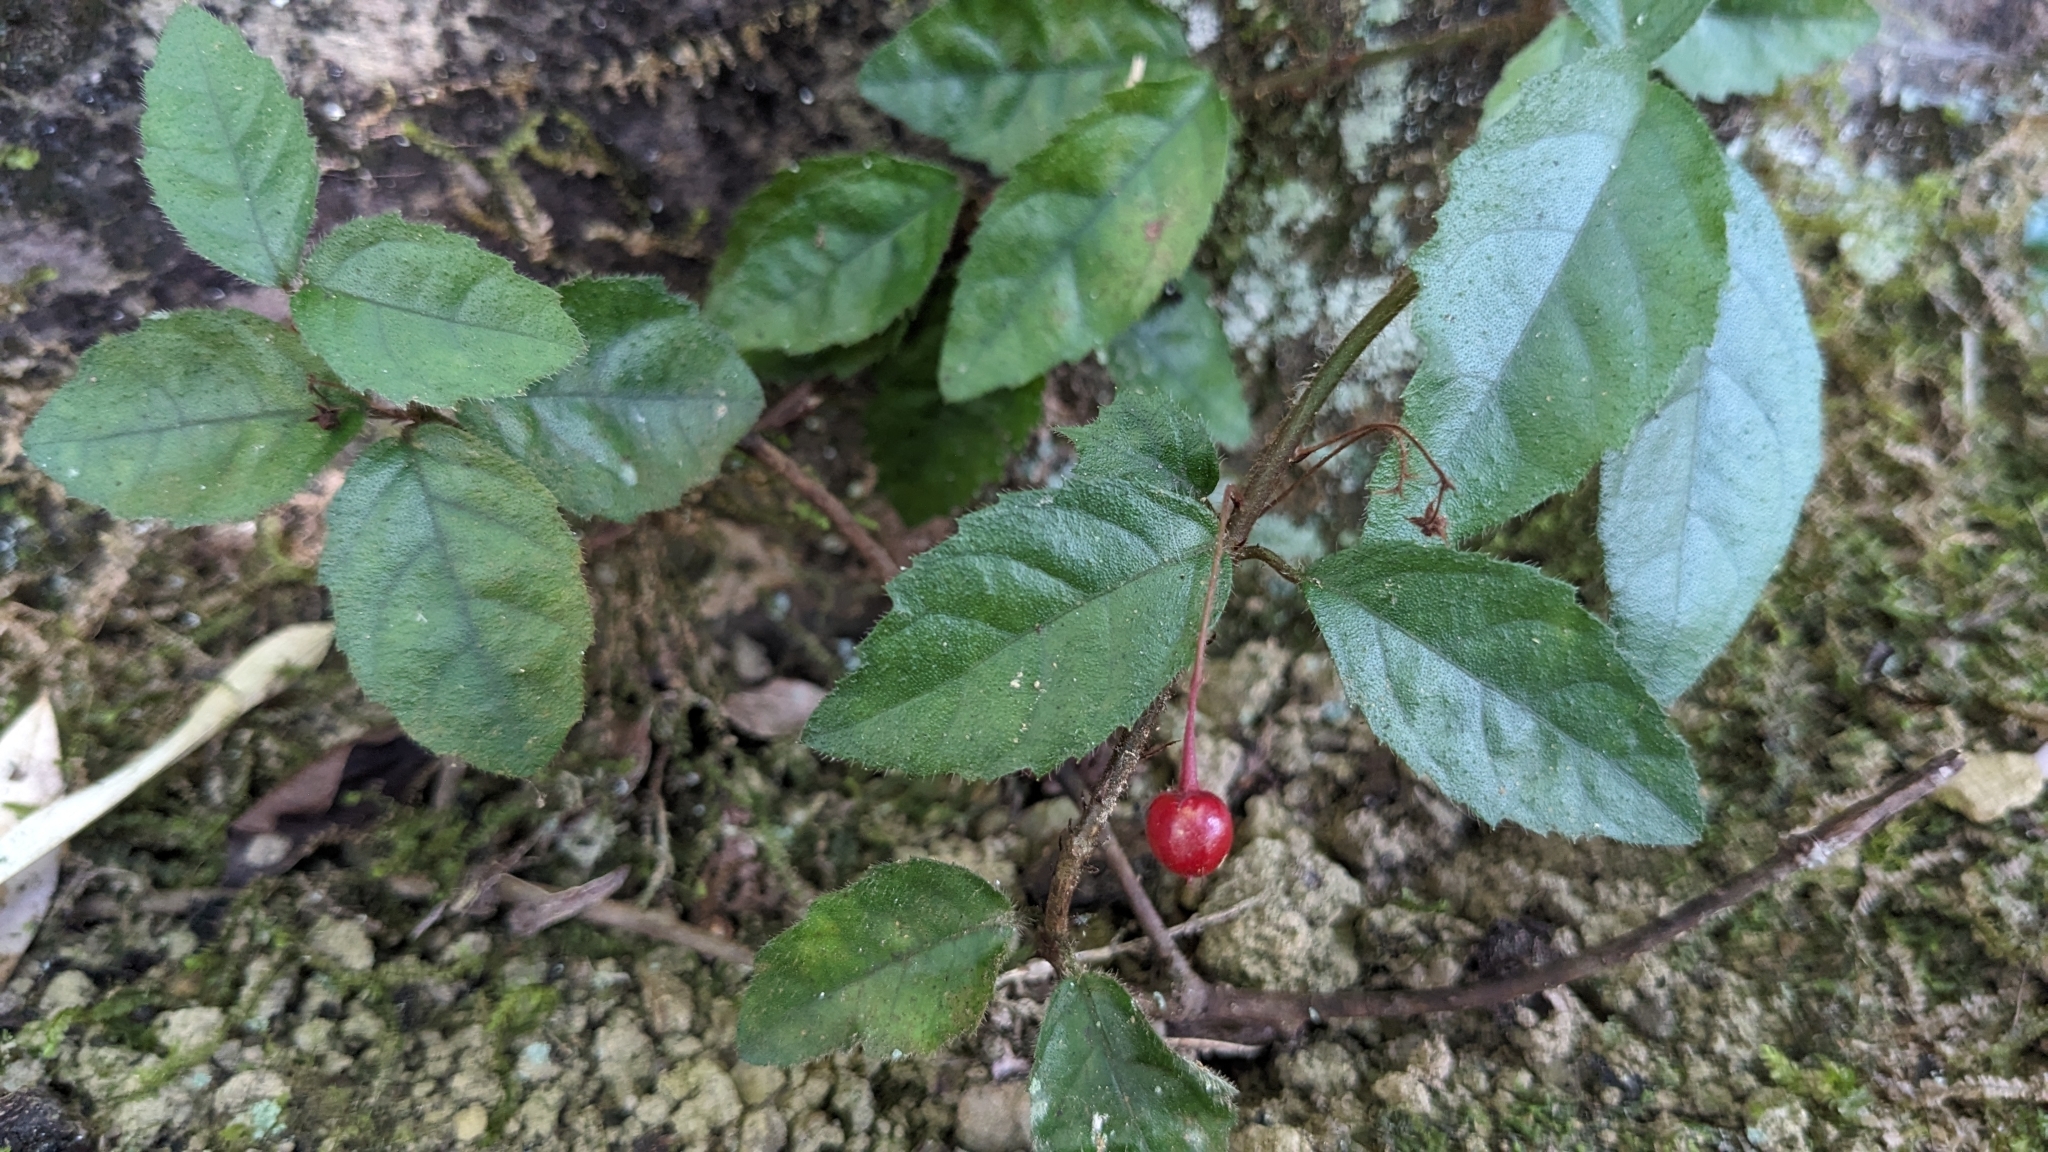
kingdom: Plantae
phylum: Tracheophyta
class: Magnoliopsida
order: Ericales
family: Primulaceae
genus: Ardisia
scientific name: Ardisia pusilla
